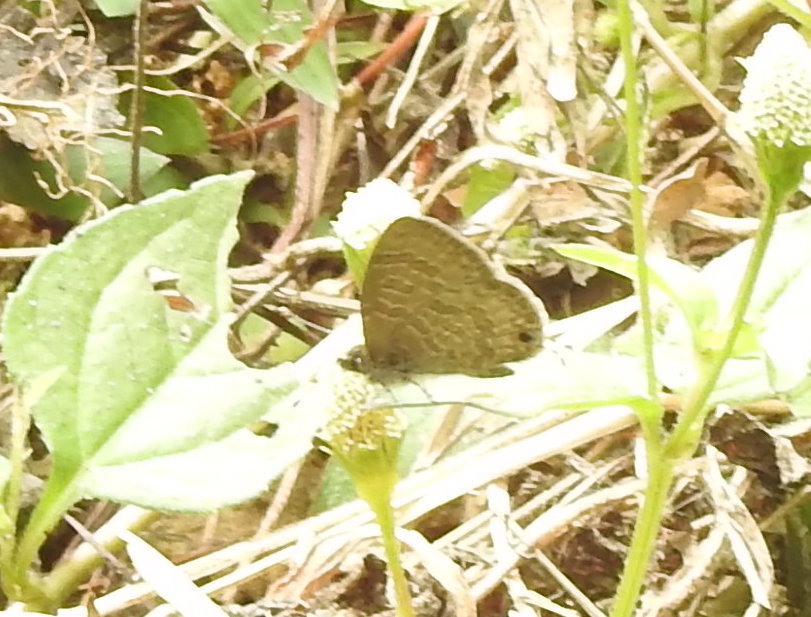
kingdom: Animalia
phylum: Arthropoda
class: Insecta
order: Lepidoptera
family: Lycaenidae
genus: Prosotas
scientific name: Prosotas nora
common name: Common line blue
